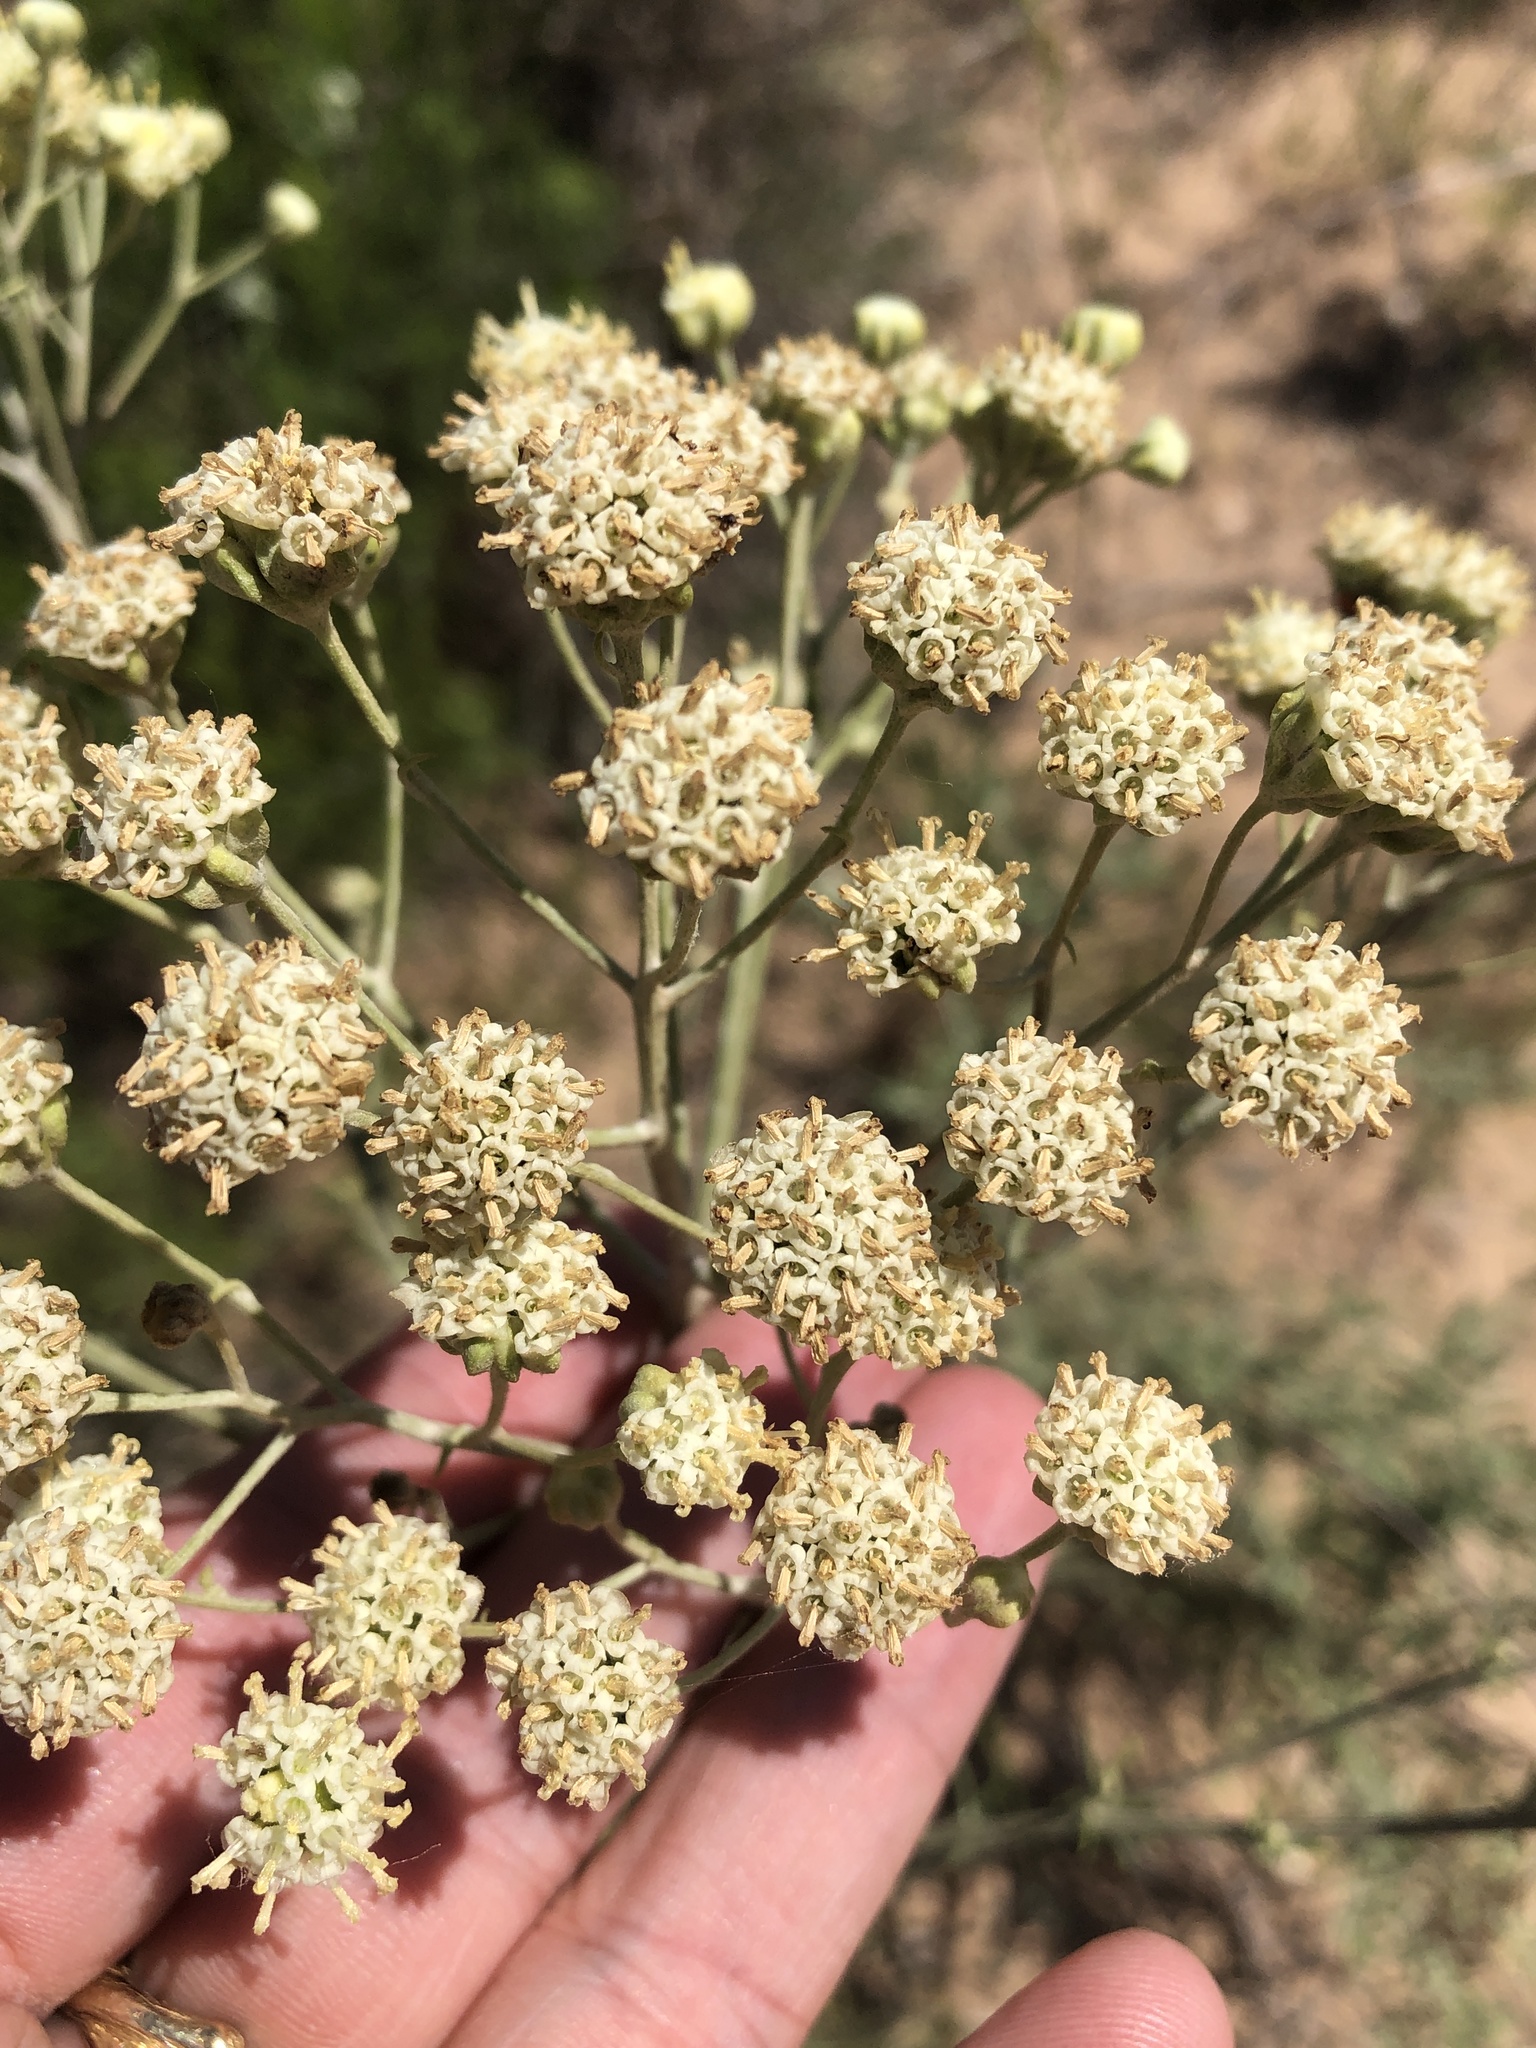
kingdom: Plantae
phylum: Tracheophyta
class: Magnoliopsida
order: Asterales
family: Asteraceae
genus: Hymenopappus
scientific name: Hymenopappus tenuifolius
